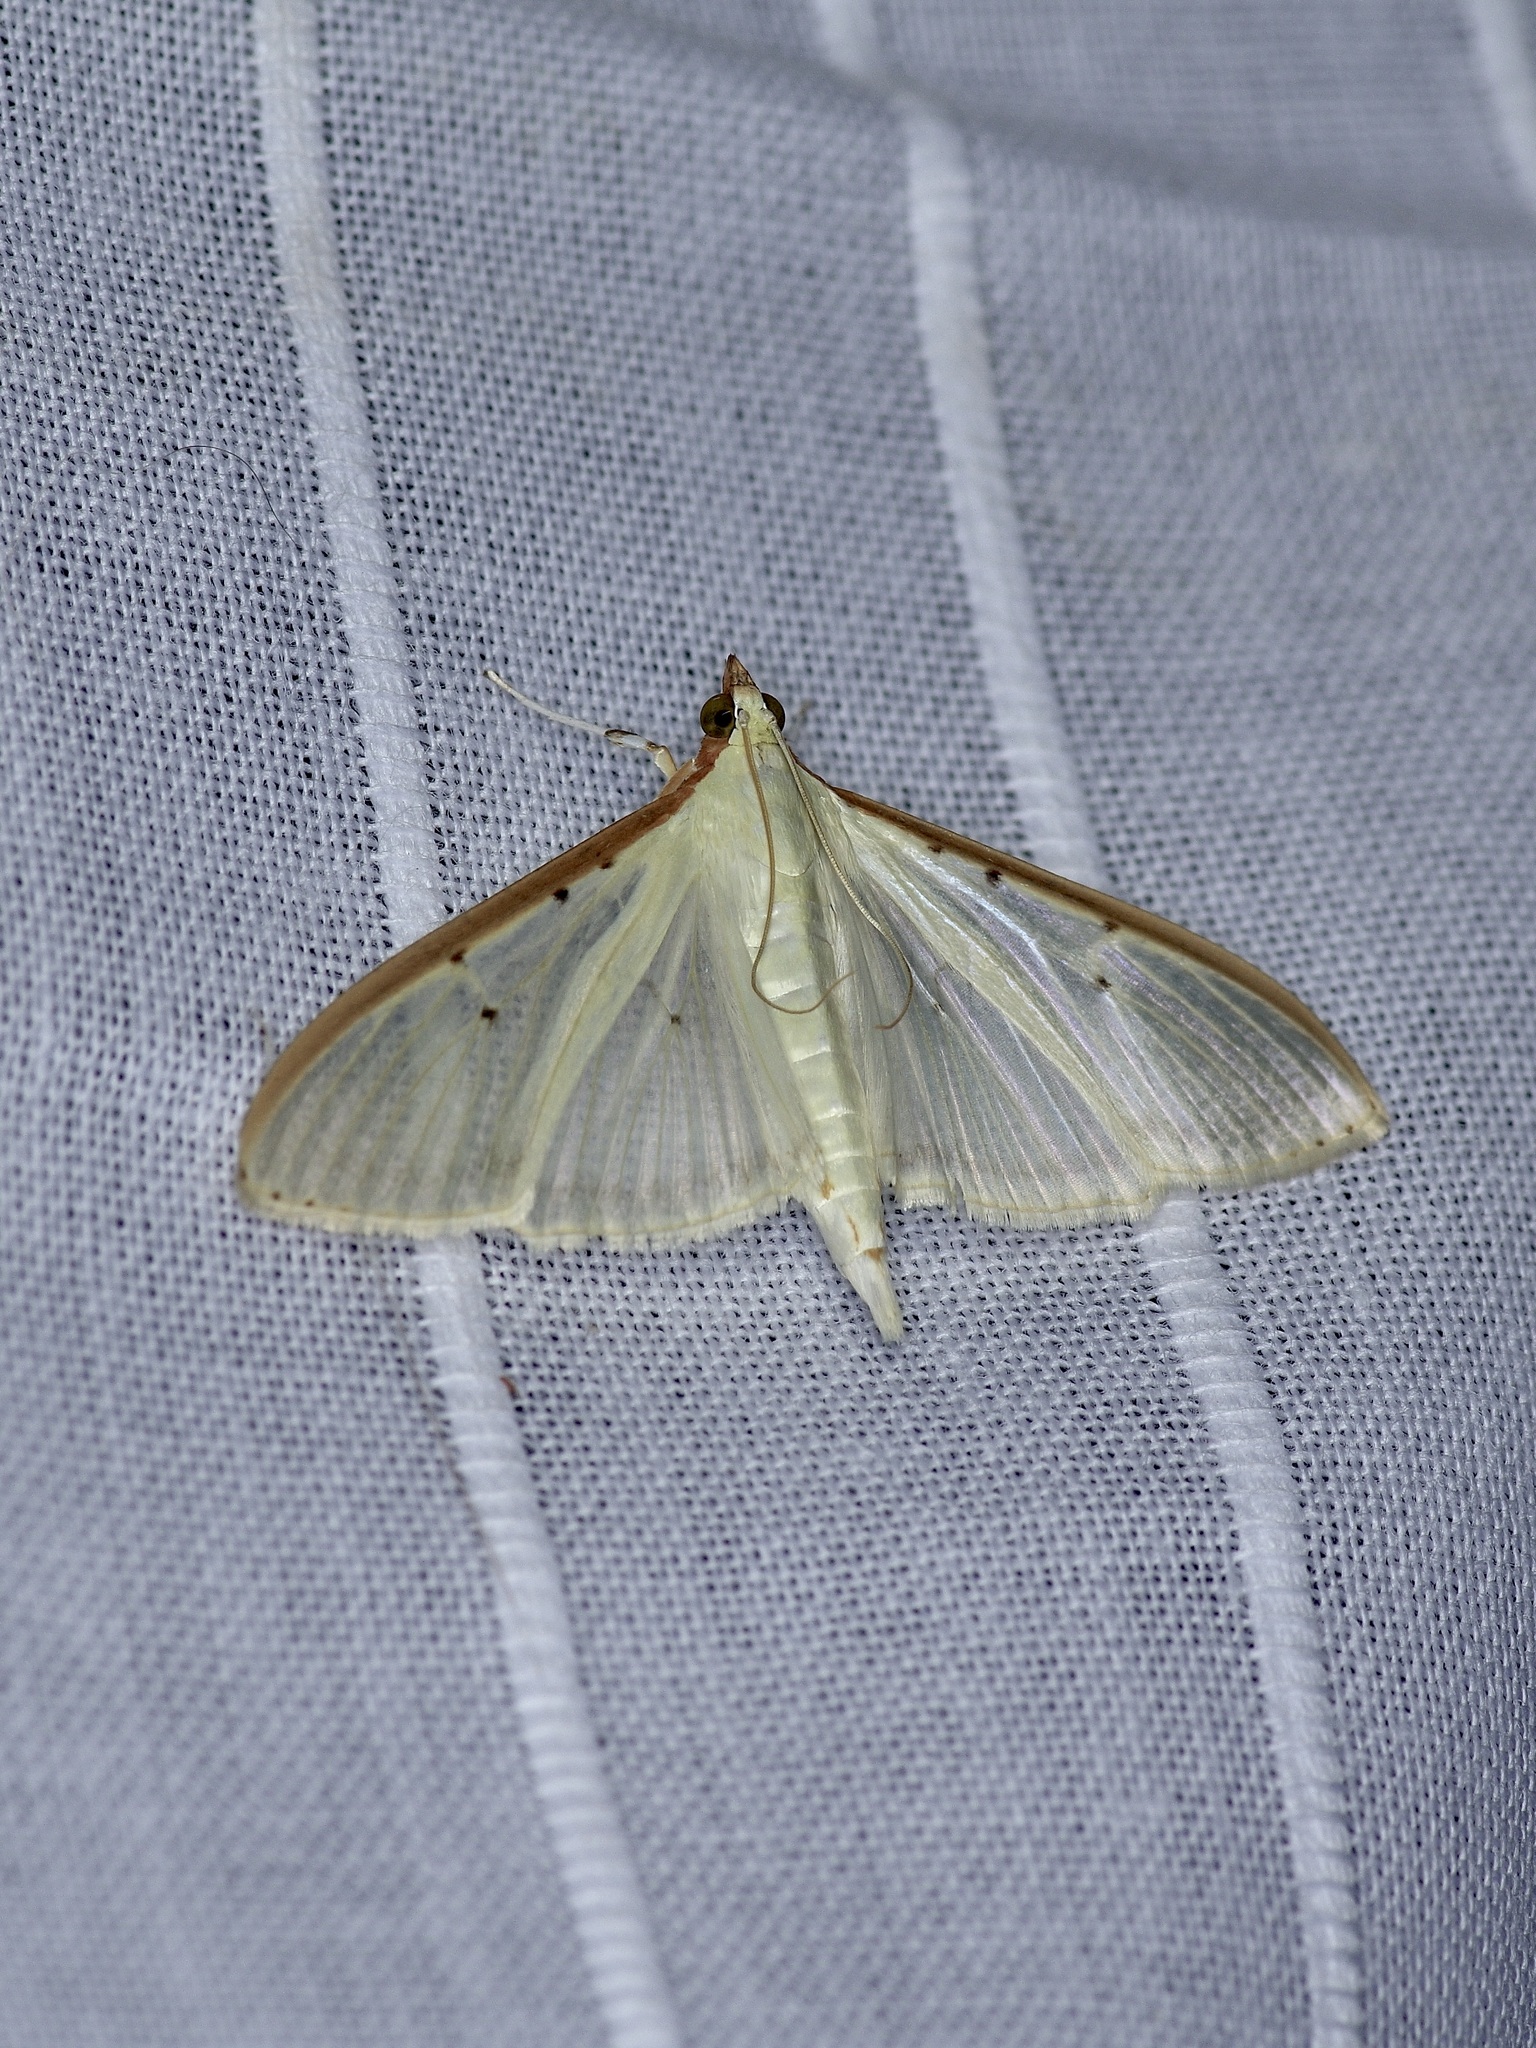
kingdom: Animalia
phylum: Arthropoda
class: Insecta
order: Lepidoptera
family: Crambidae
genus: Palpita
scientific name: Palpita quadristigmalis
